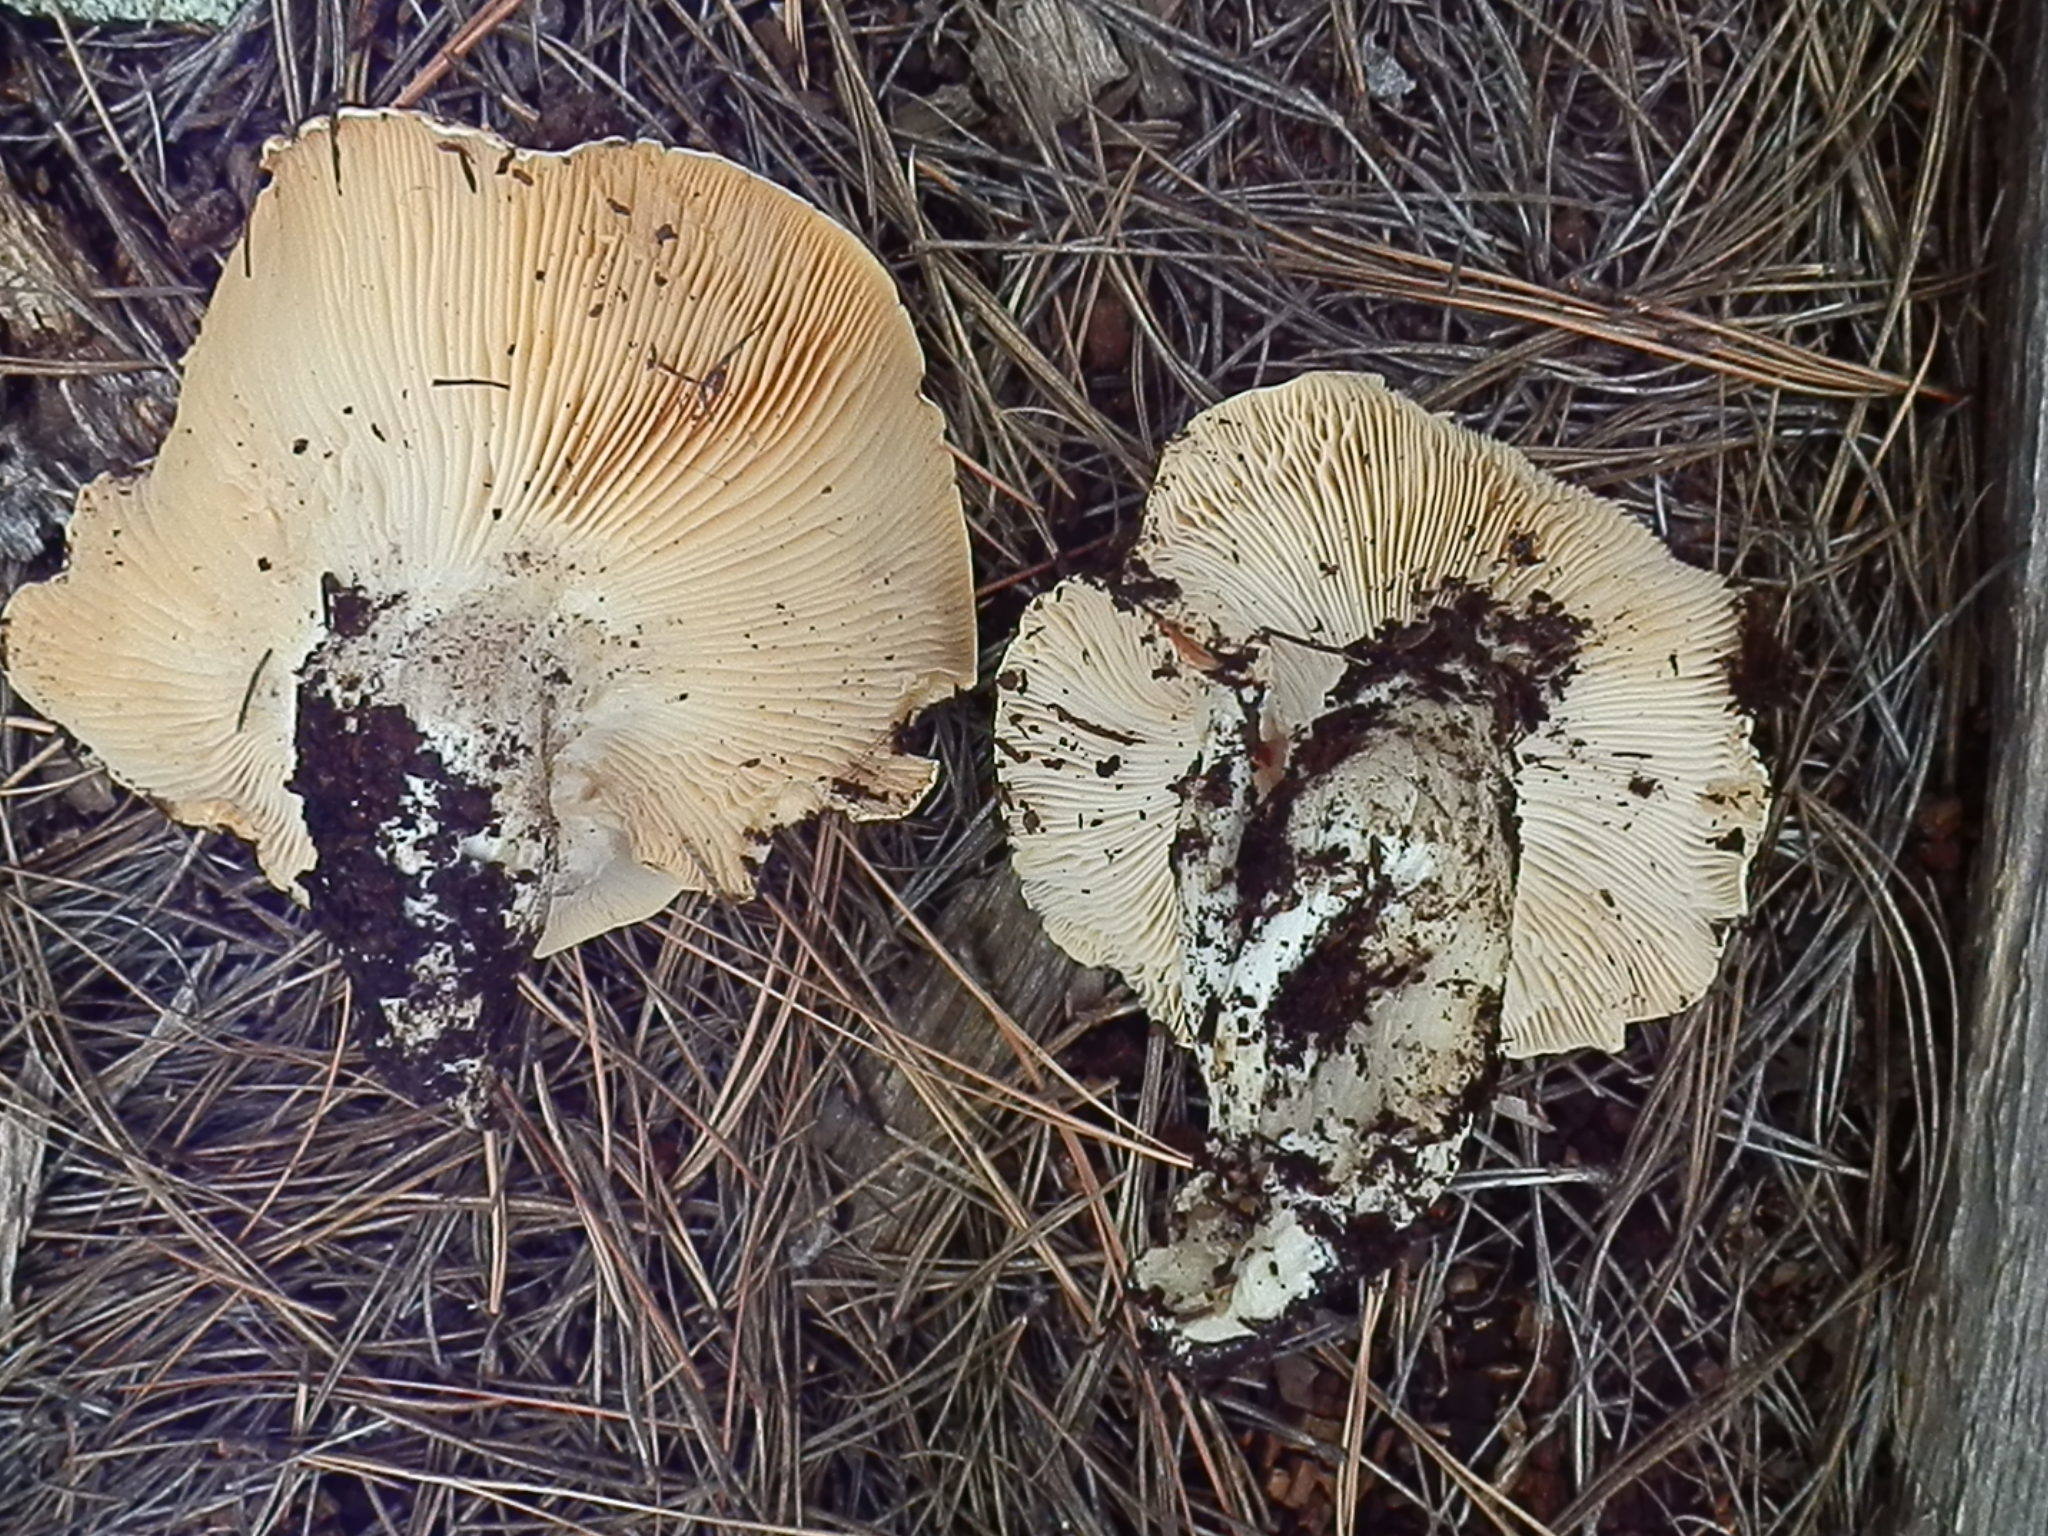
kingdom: Fungi
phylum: Basidiomycota
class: Agaricomycetes
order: Agaricales
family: Hygrophoraceae
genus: Cantharocybe
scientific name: Cantharocybe gruberi
